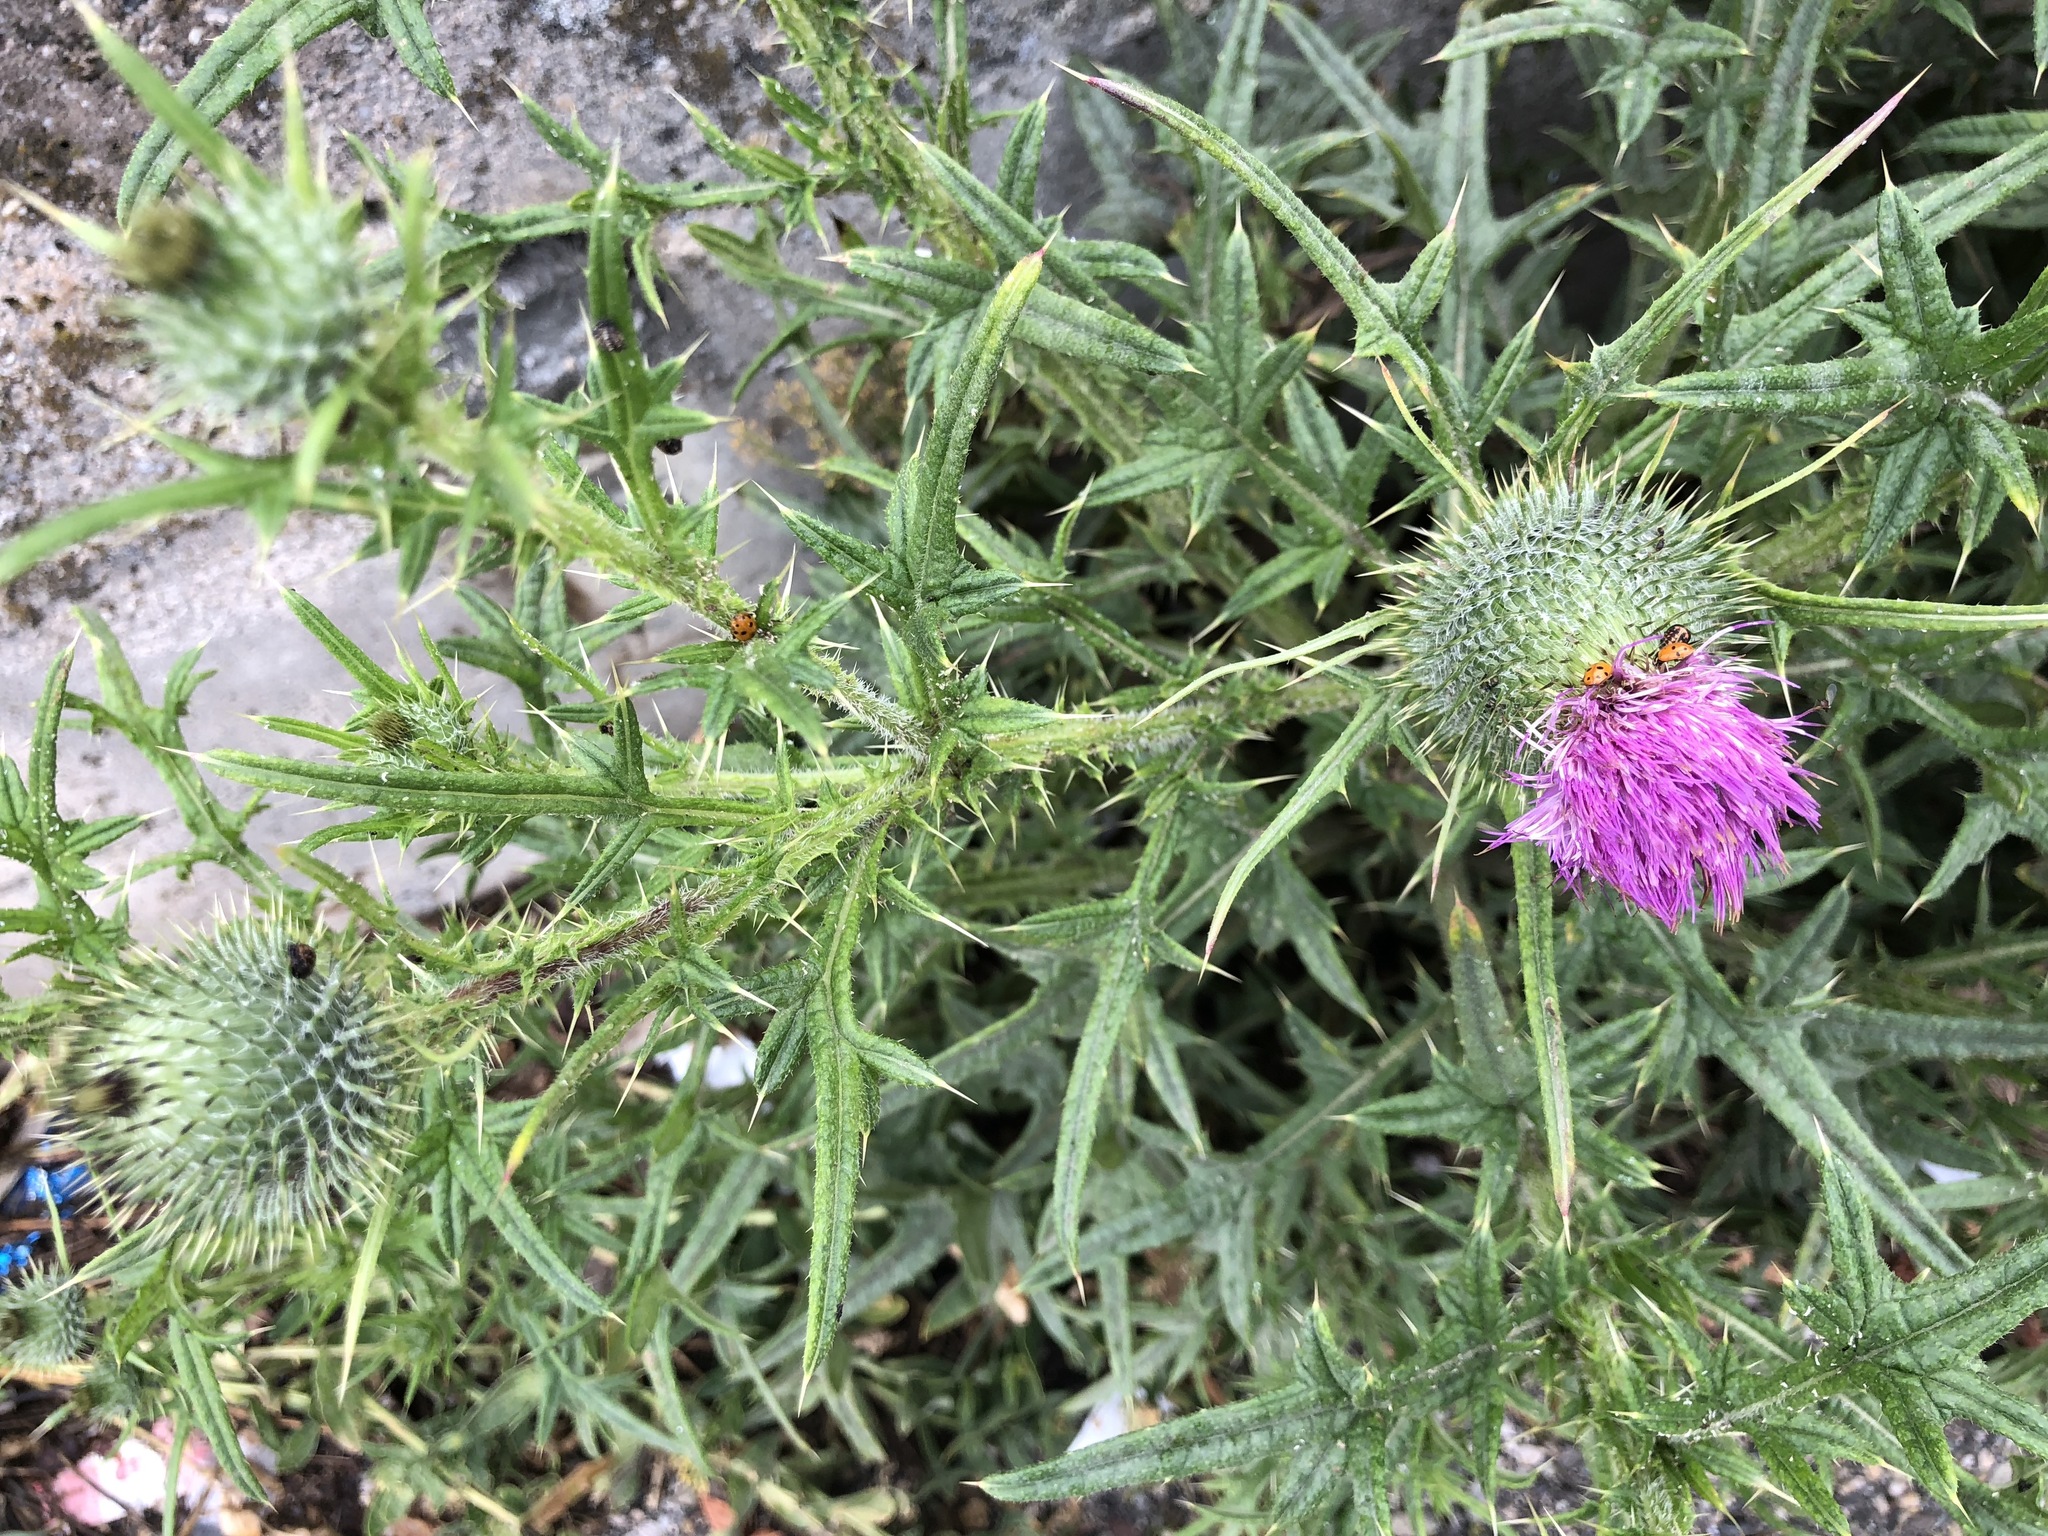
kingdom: Plantae
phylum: Tracheophyta
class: Magnoliopsida
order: Asterales
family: Asteraceae
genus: Cirsium
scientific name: Cirsium vulgare
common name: Bull thistle
